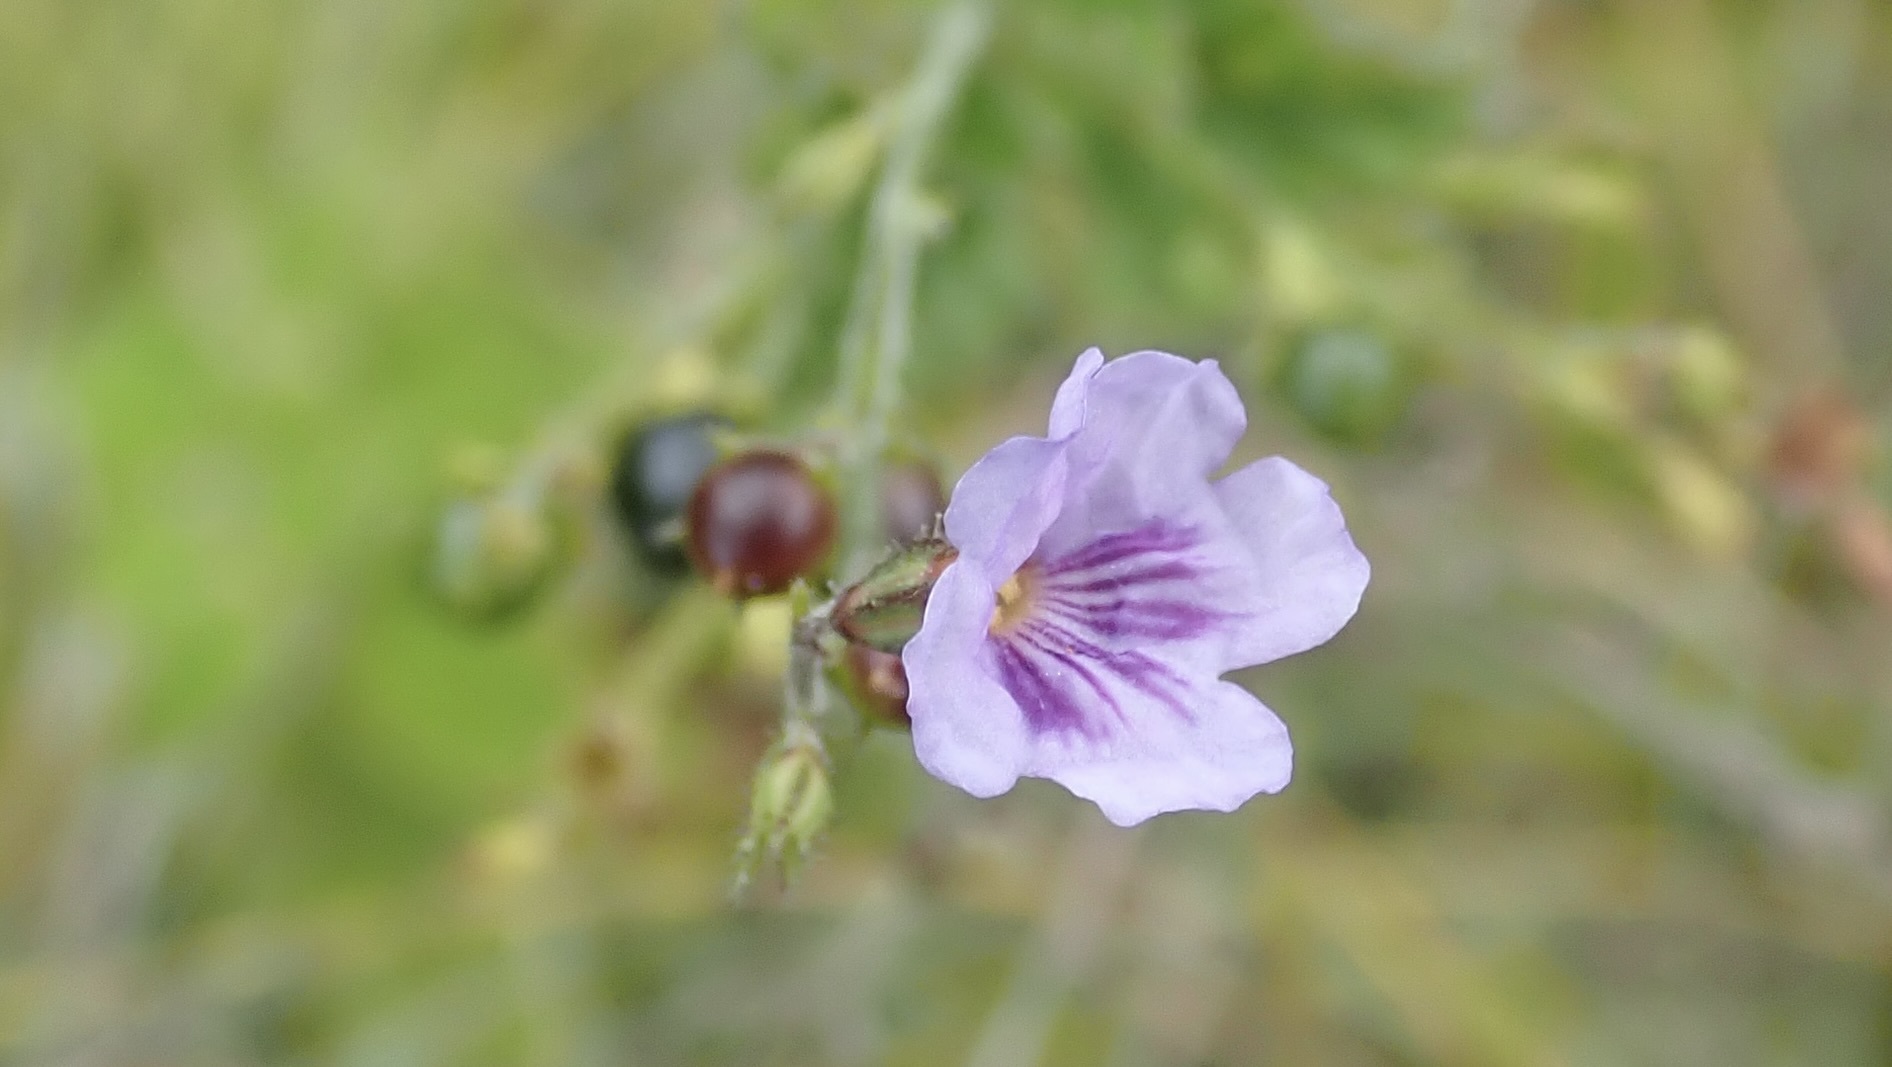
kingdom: Plantae
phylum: Tracheophyta
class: Magnoliopsida
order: Lamiales
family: Verbenaceae
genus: Tamonea
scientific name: Tamonea spicata
